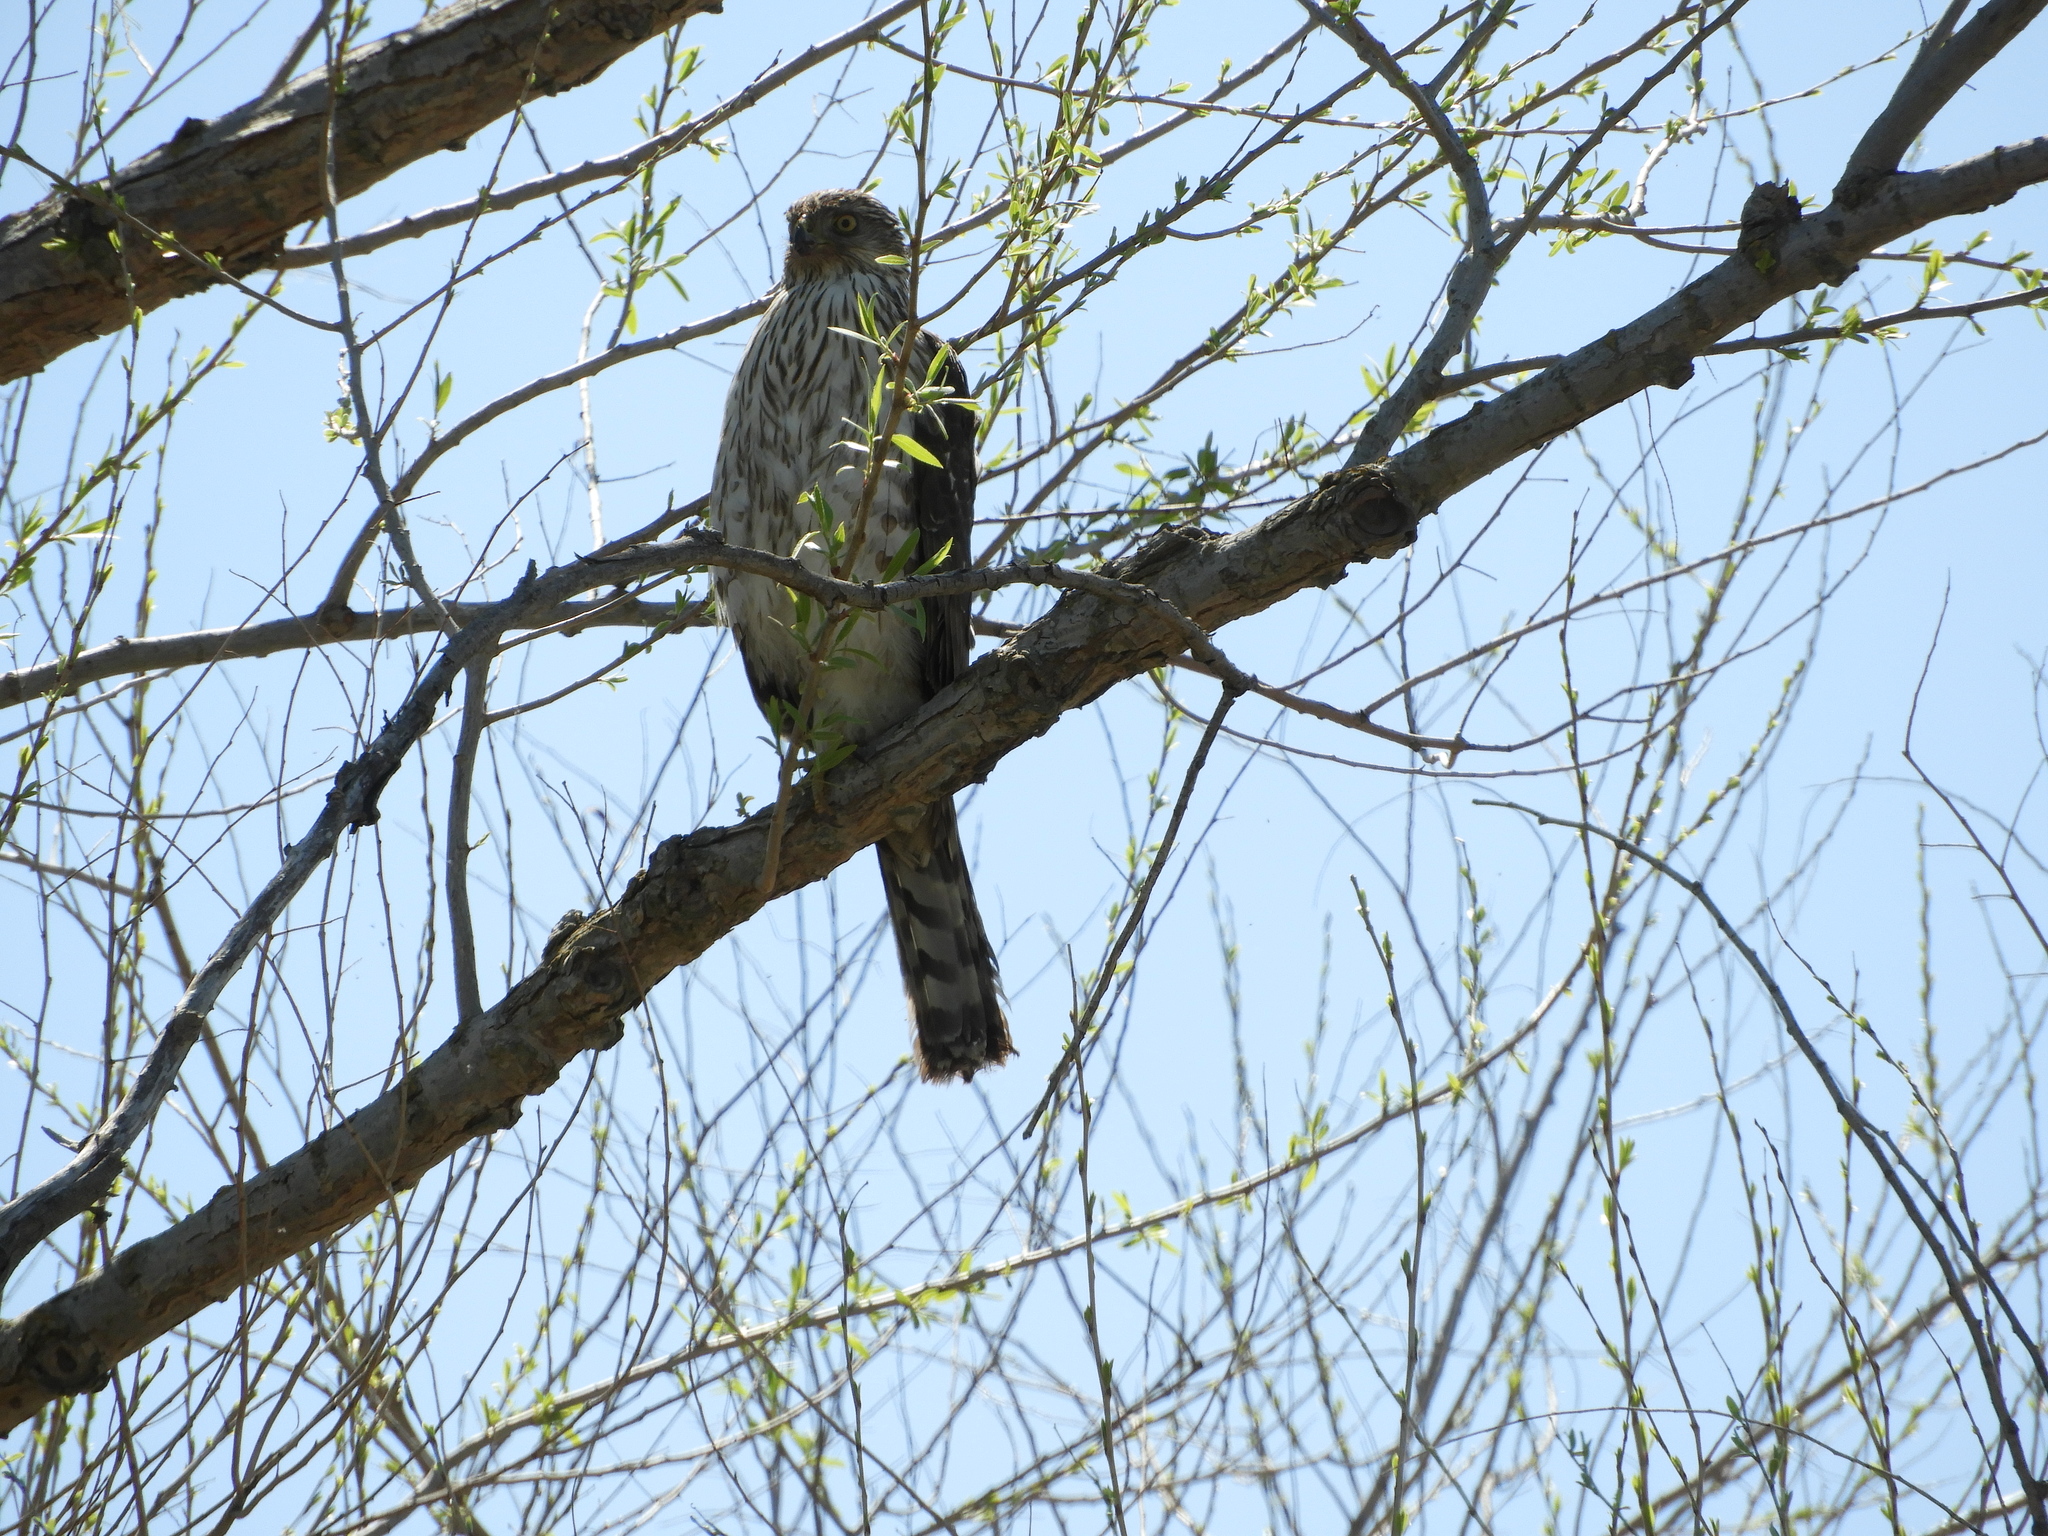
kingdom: Animalia
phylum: Chordata
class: Aves
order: Accipitriformes
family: Accipitridae
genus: Accipiter
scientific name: Accipiter cooperii
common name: Cooper's hawk
